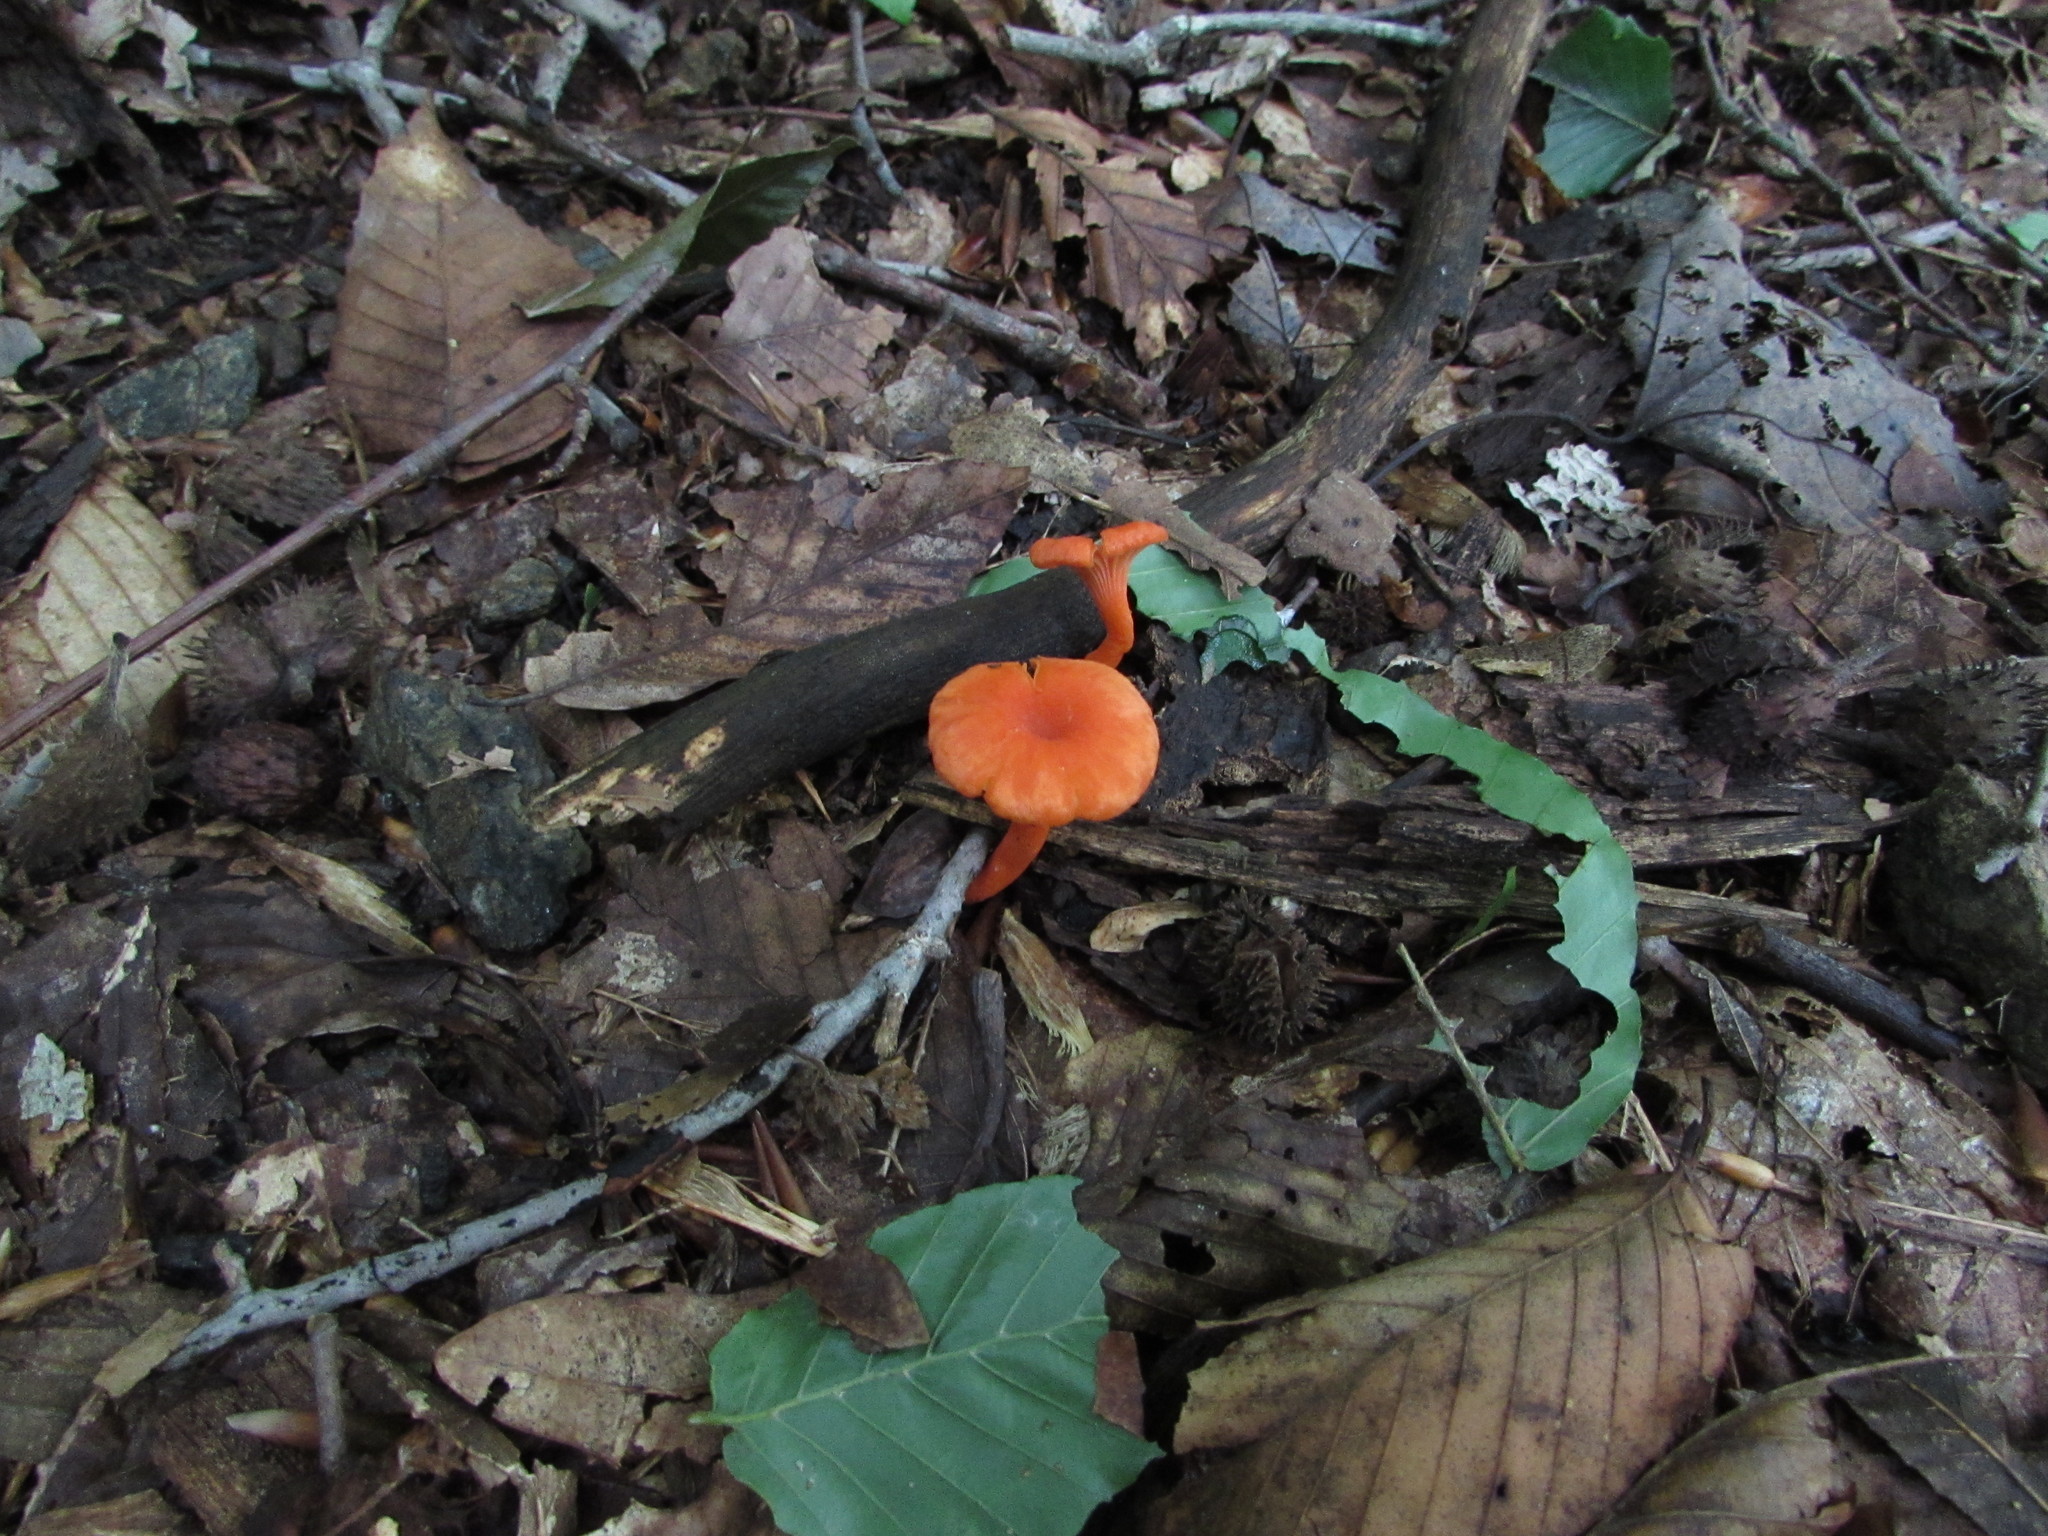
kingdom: Fungi
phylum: Basidiomycota
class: Agaricomycetes
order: Cantharellales
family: Hydnaceae
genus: Cantharellus
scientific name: Cantharellus cinnabarinus
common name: Cinnabar chanterelle
